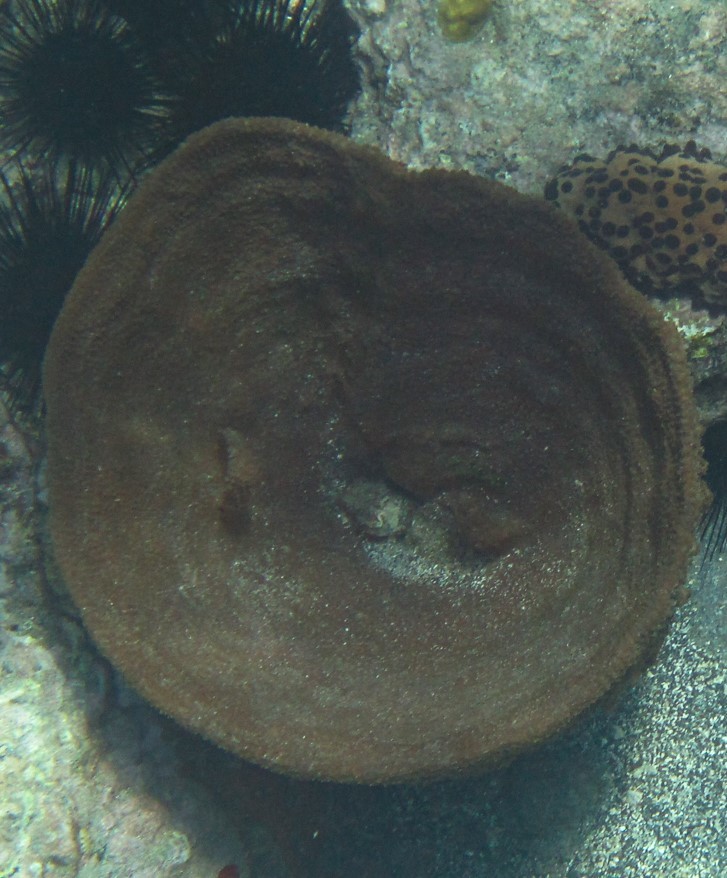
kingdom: Animalia
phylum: Porifera
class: Demospongiae
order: Dictyoceratida
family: Irciniidae
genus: Ircinia
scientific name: Ircinia campana
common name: Vase sponge
